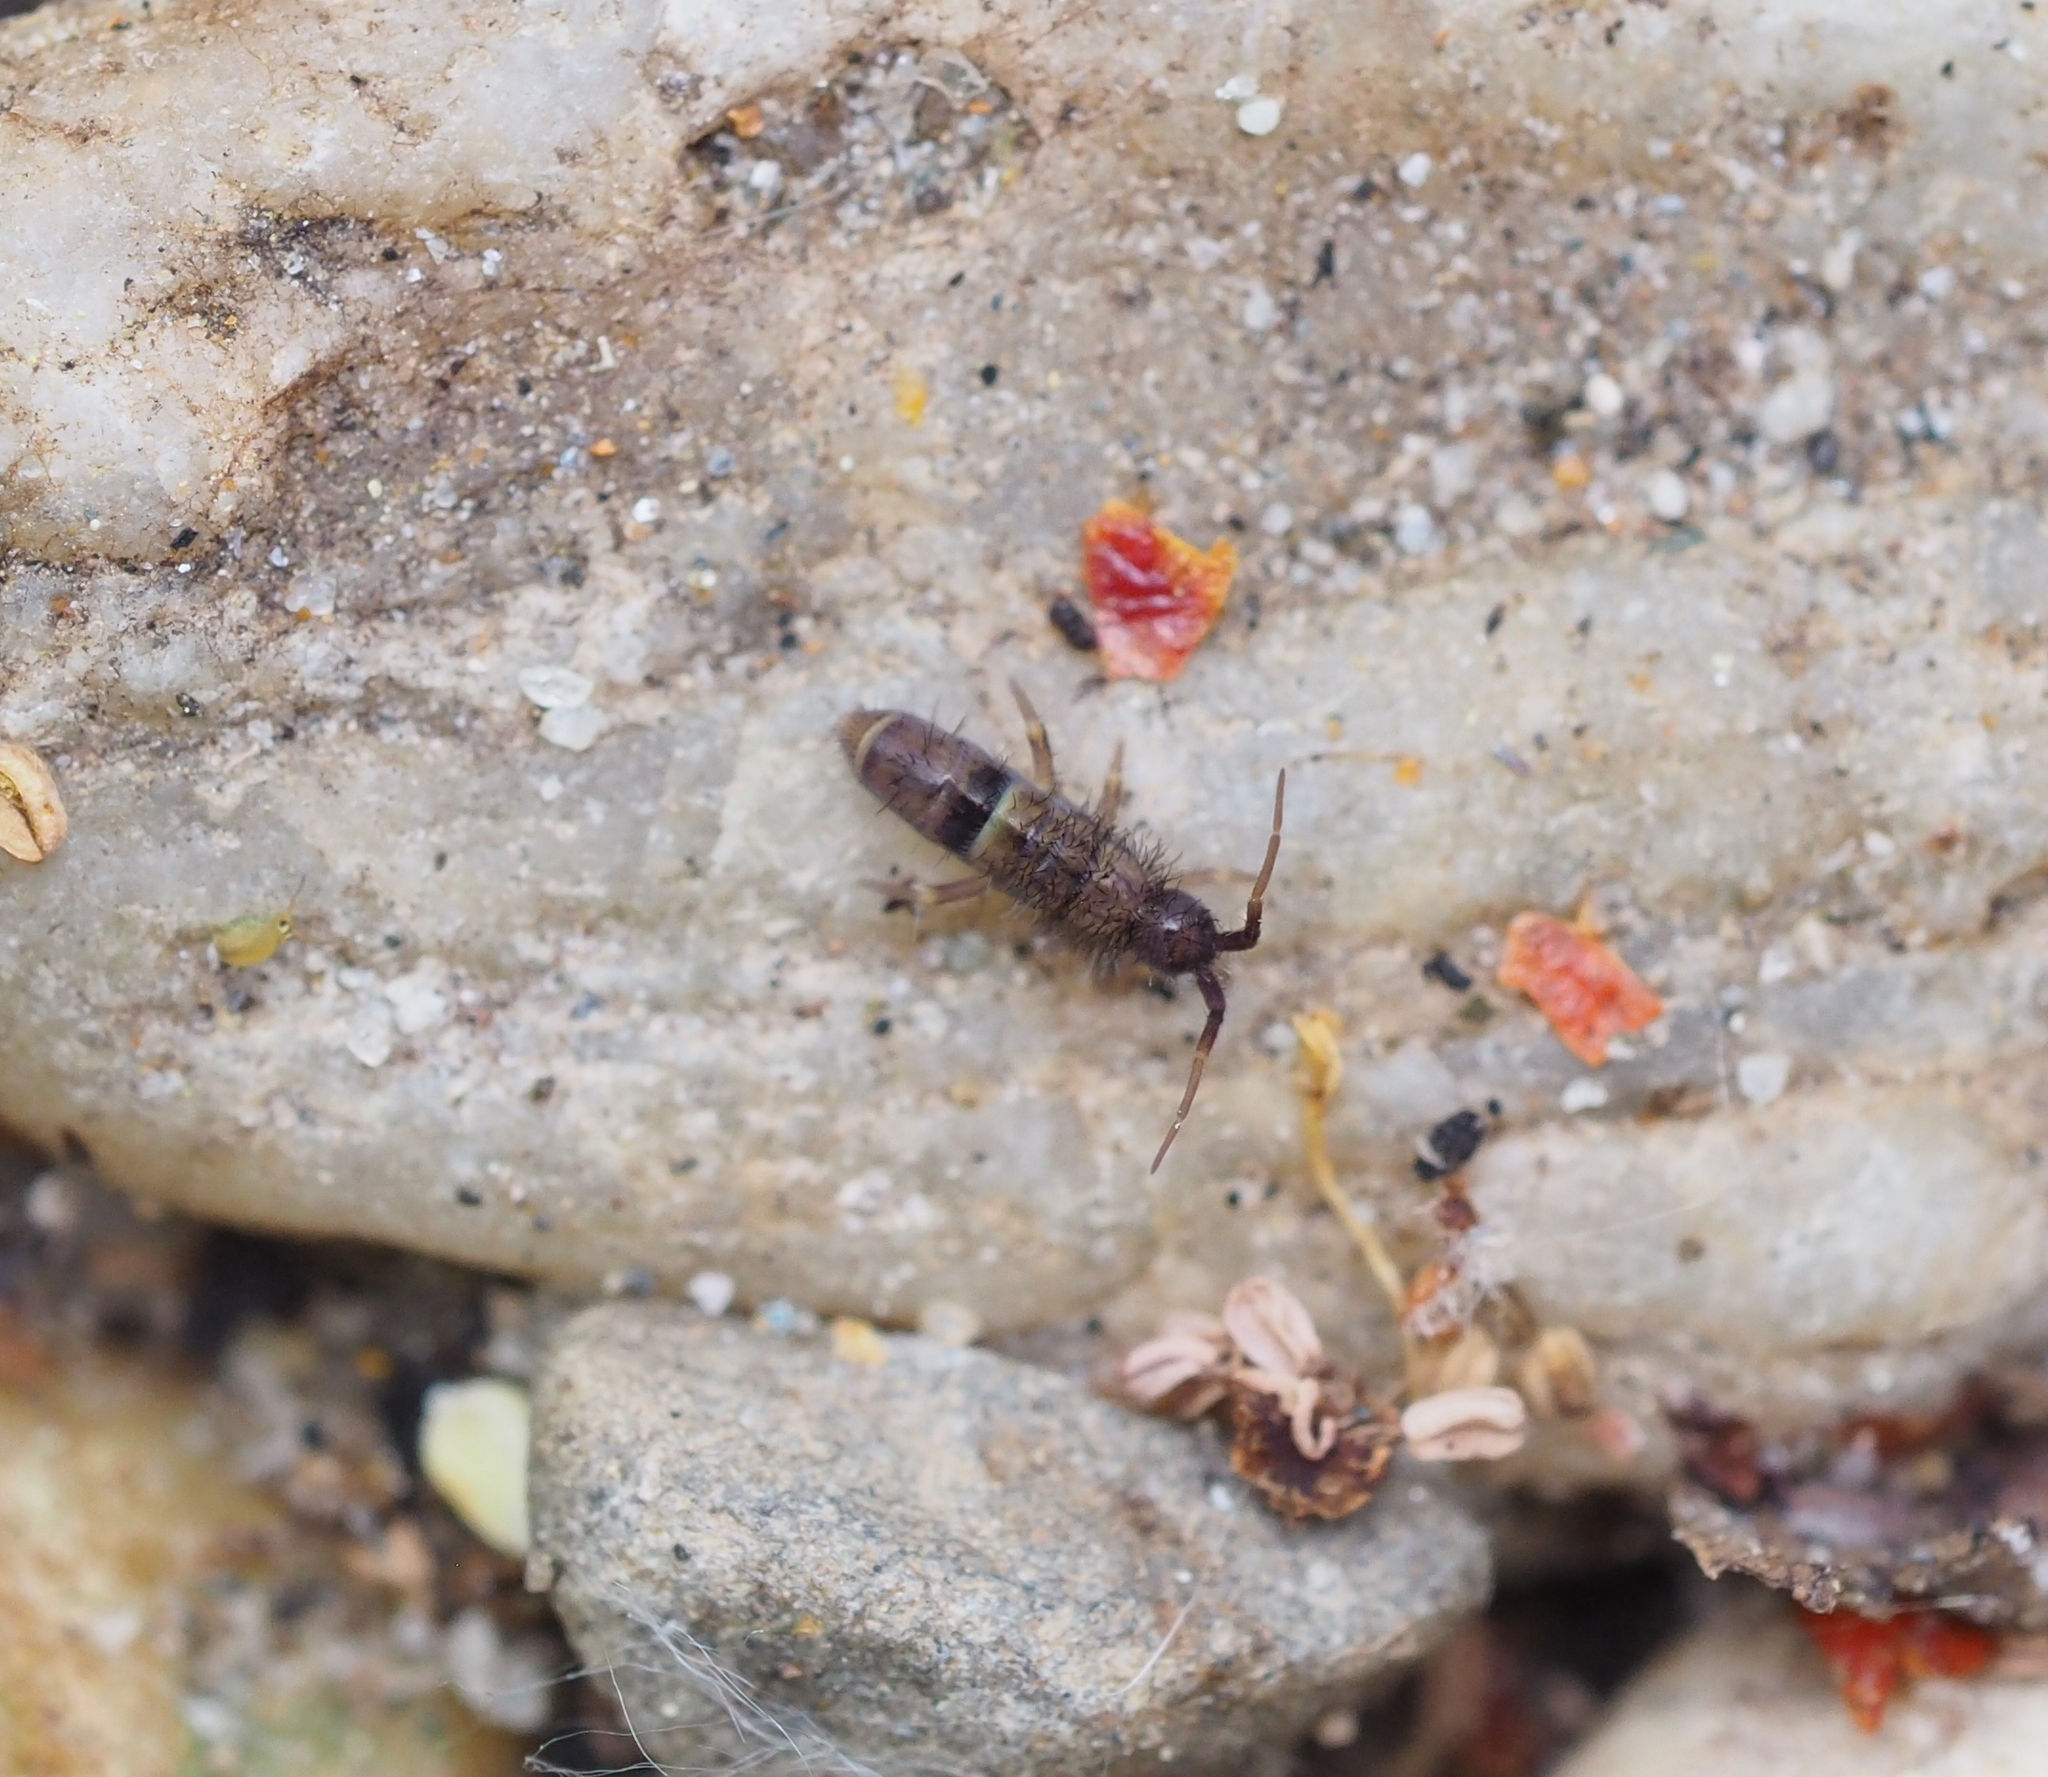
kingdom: Animalia
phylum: Arthropoda
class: Collembola
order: Entomobryomorpha
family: Orchesellidae
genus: Orchesella
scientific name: Orchesella cincta
